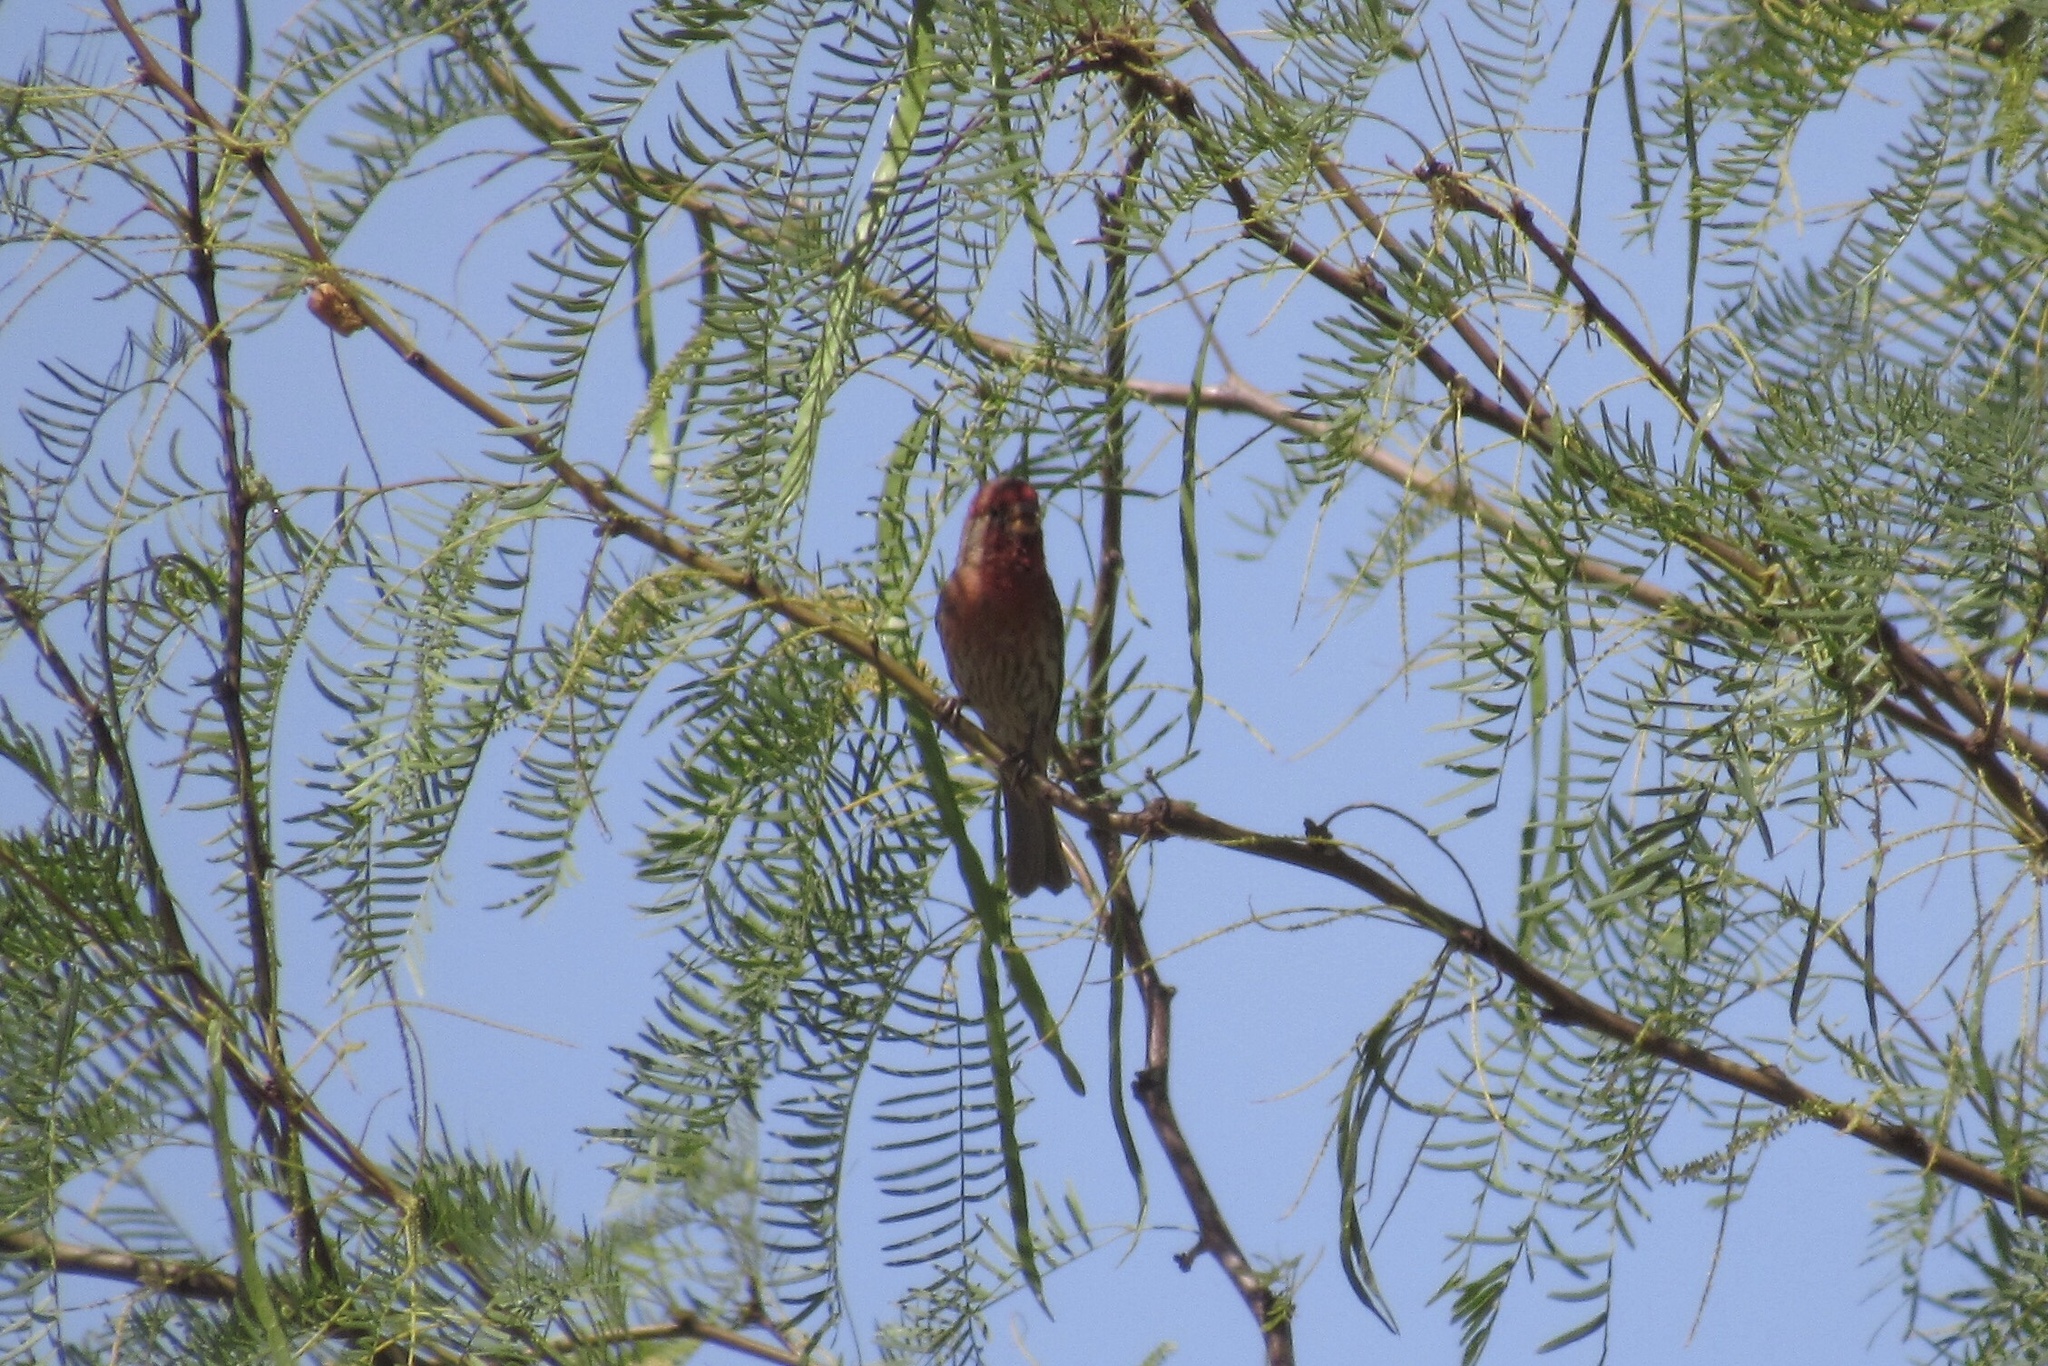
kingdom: Animalia
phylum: Chordata
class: Aves
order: Passeriformes
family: Fringillidae
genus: Haemorhous
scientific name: Haemorhous mexicanus
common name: House finch
